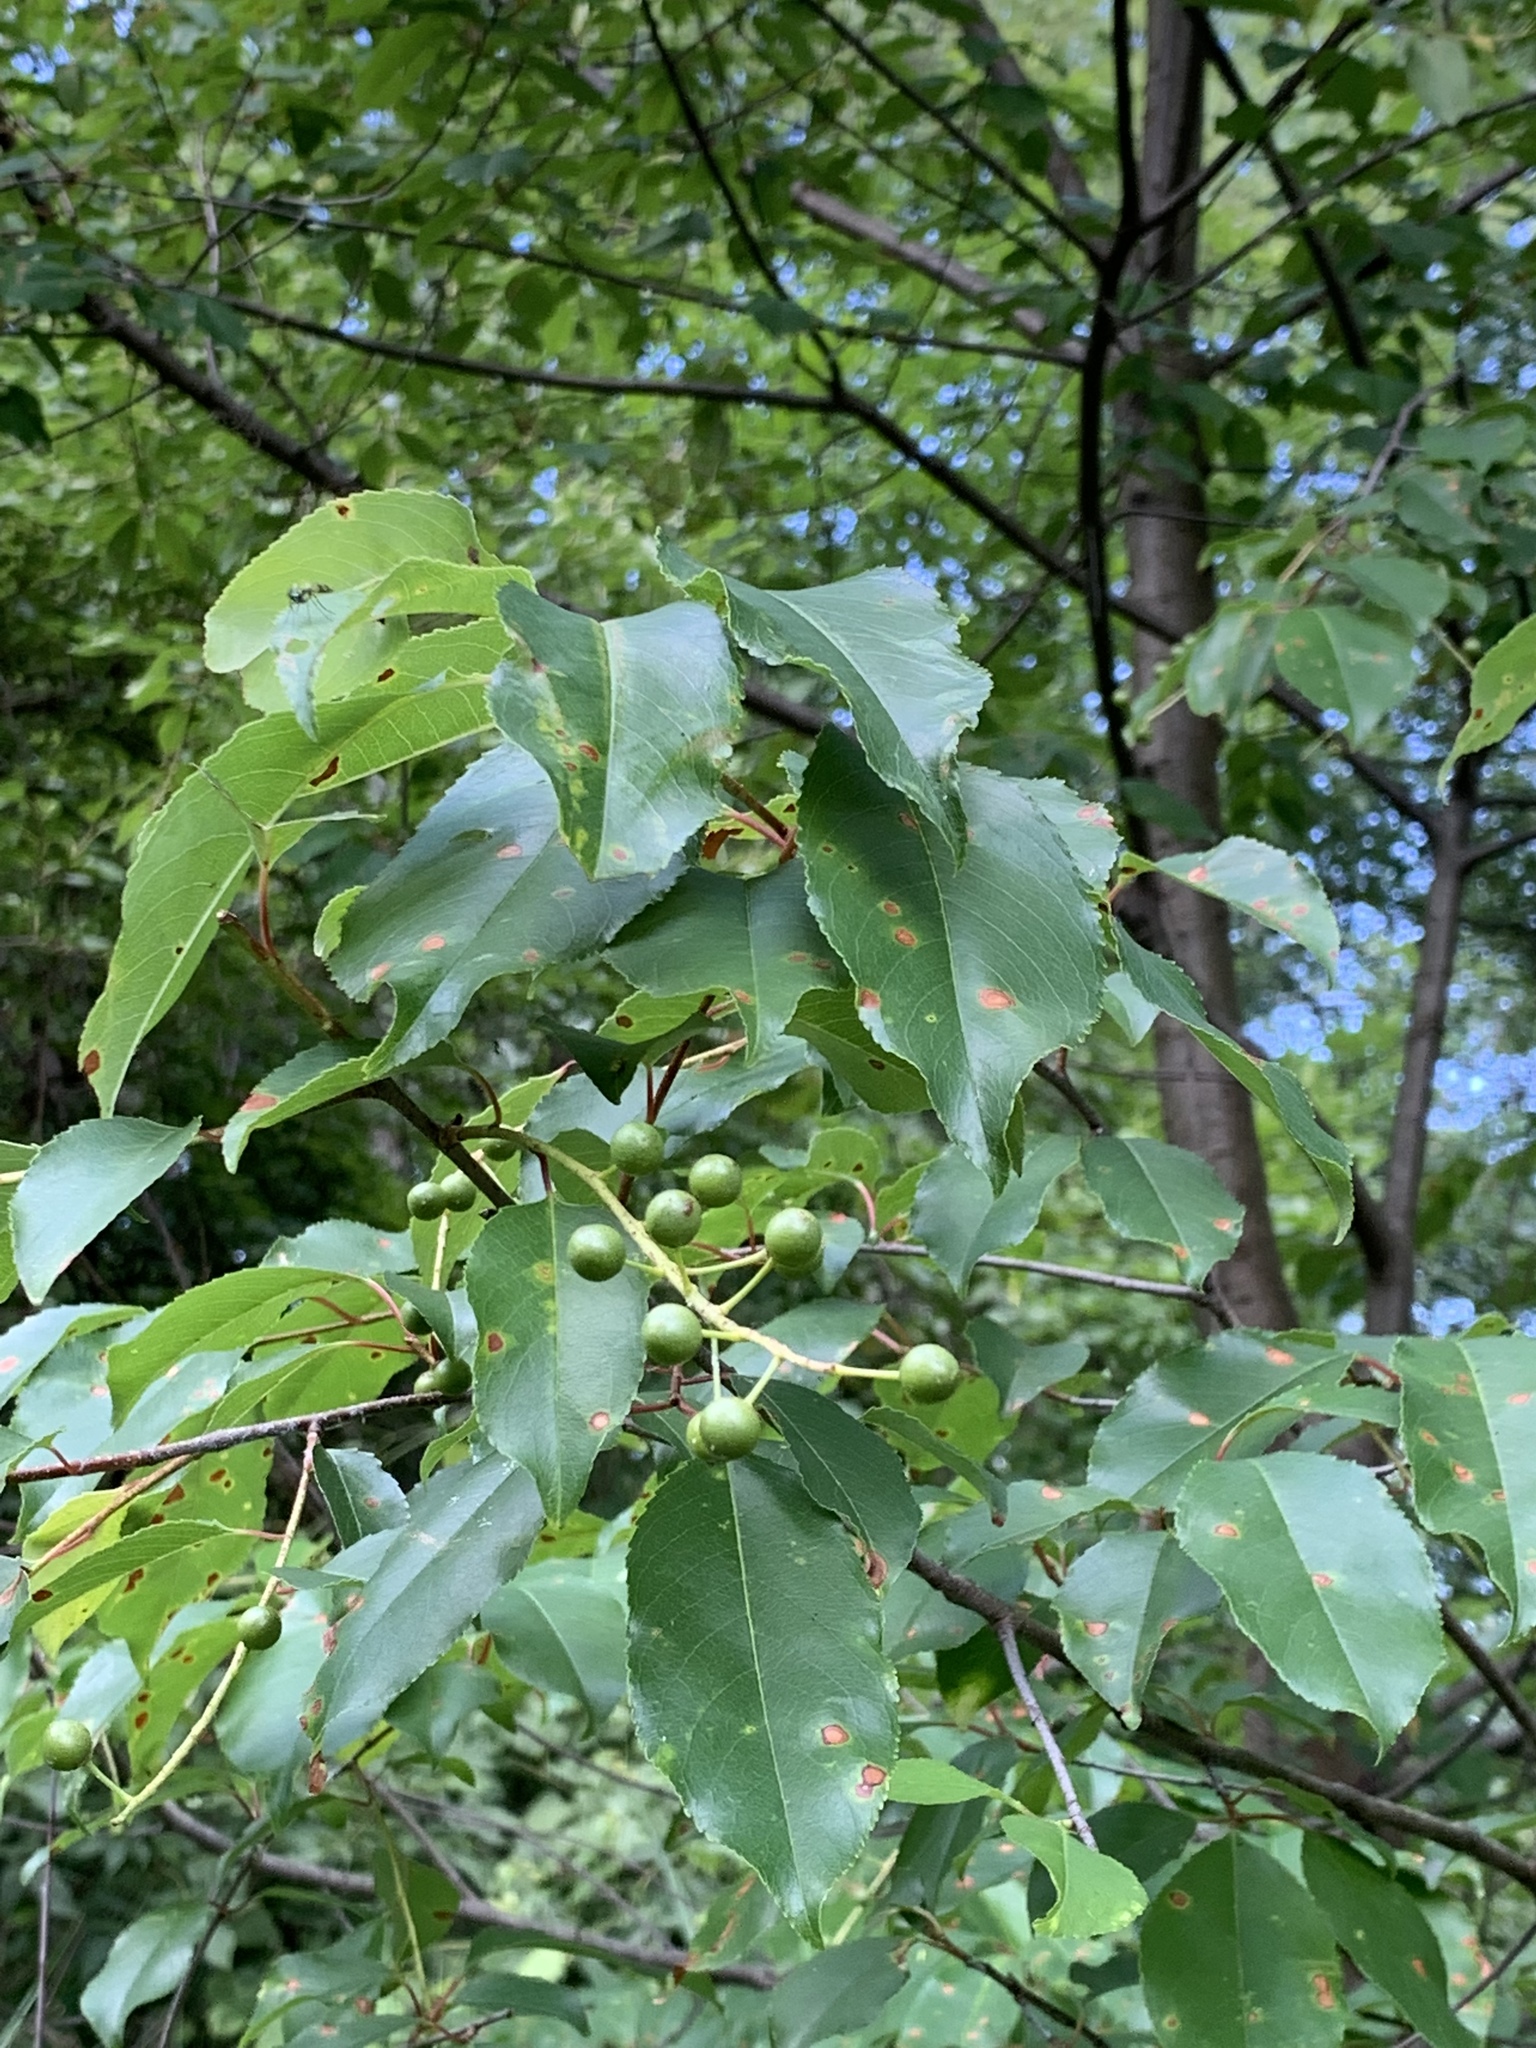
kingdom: Plantae
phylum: Tracheophyta
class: Magnoliopsida
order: Rosales
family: Rosaceae
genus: Prunus
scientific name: Prunus serotina
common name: Black cherry
